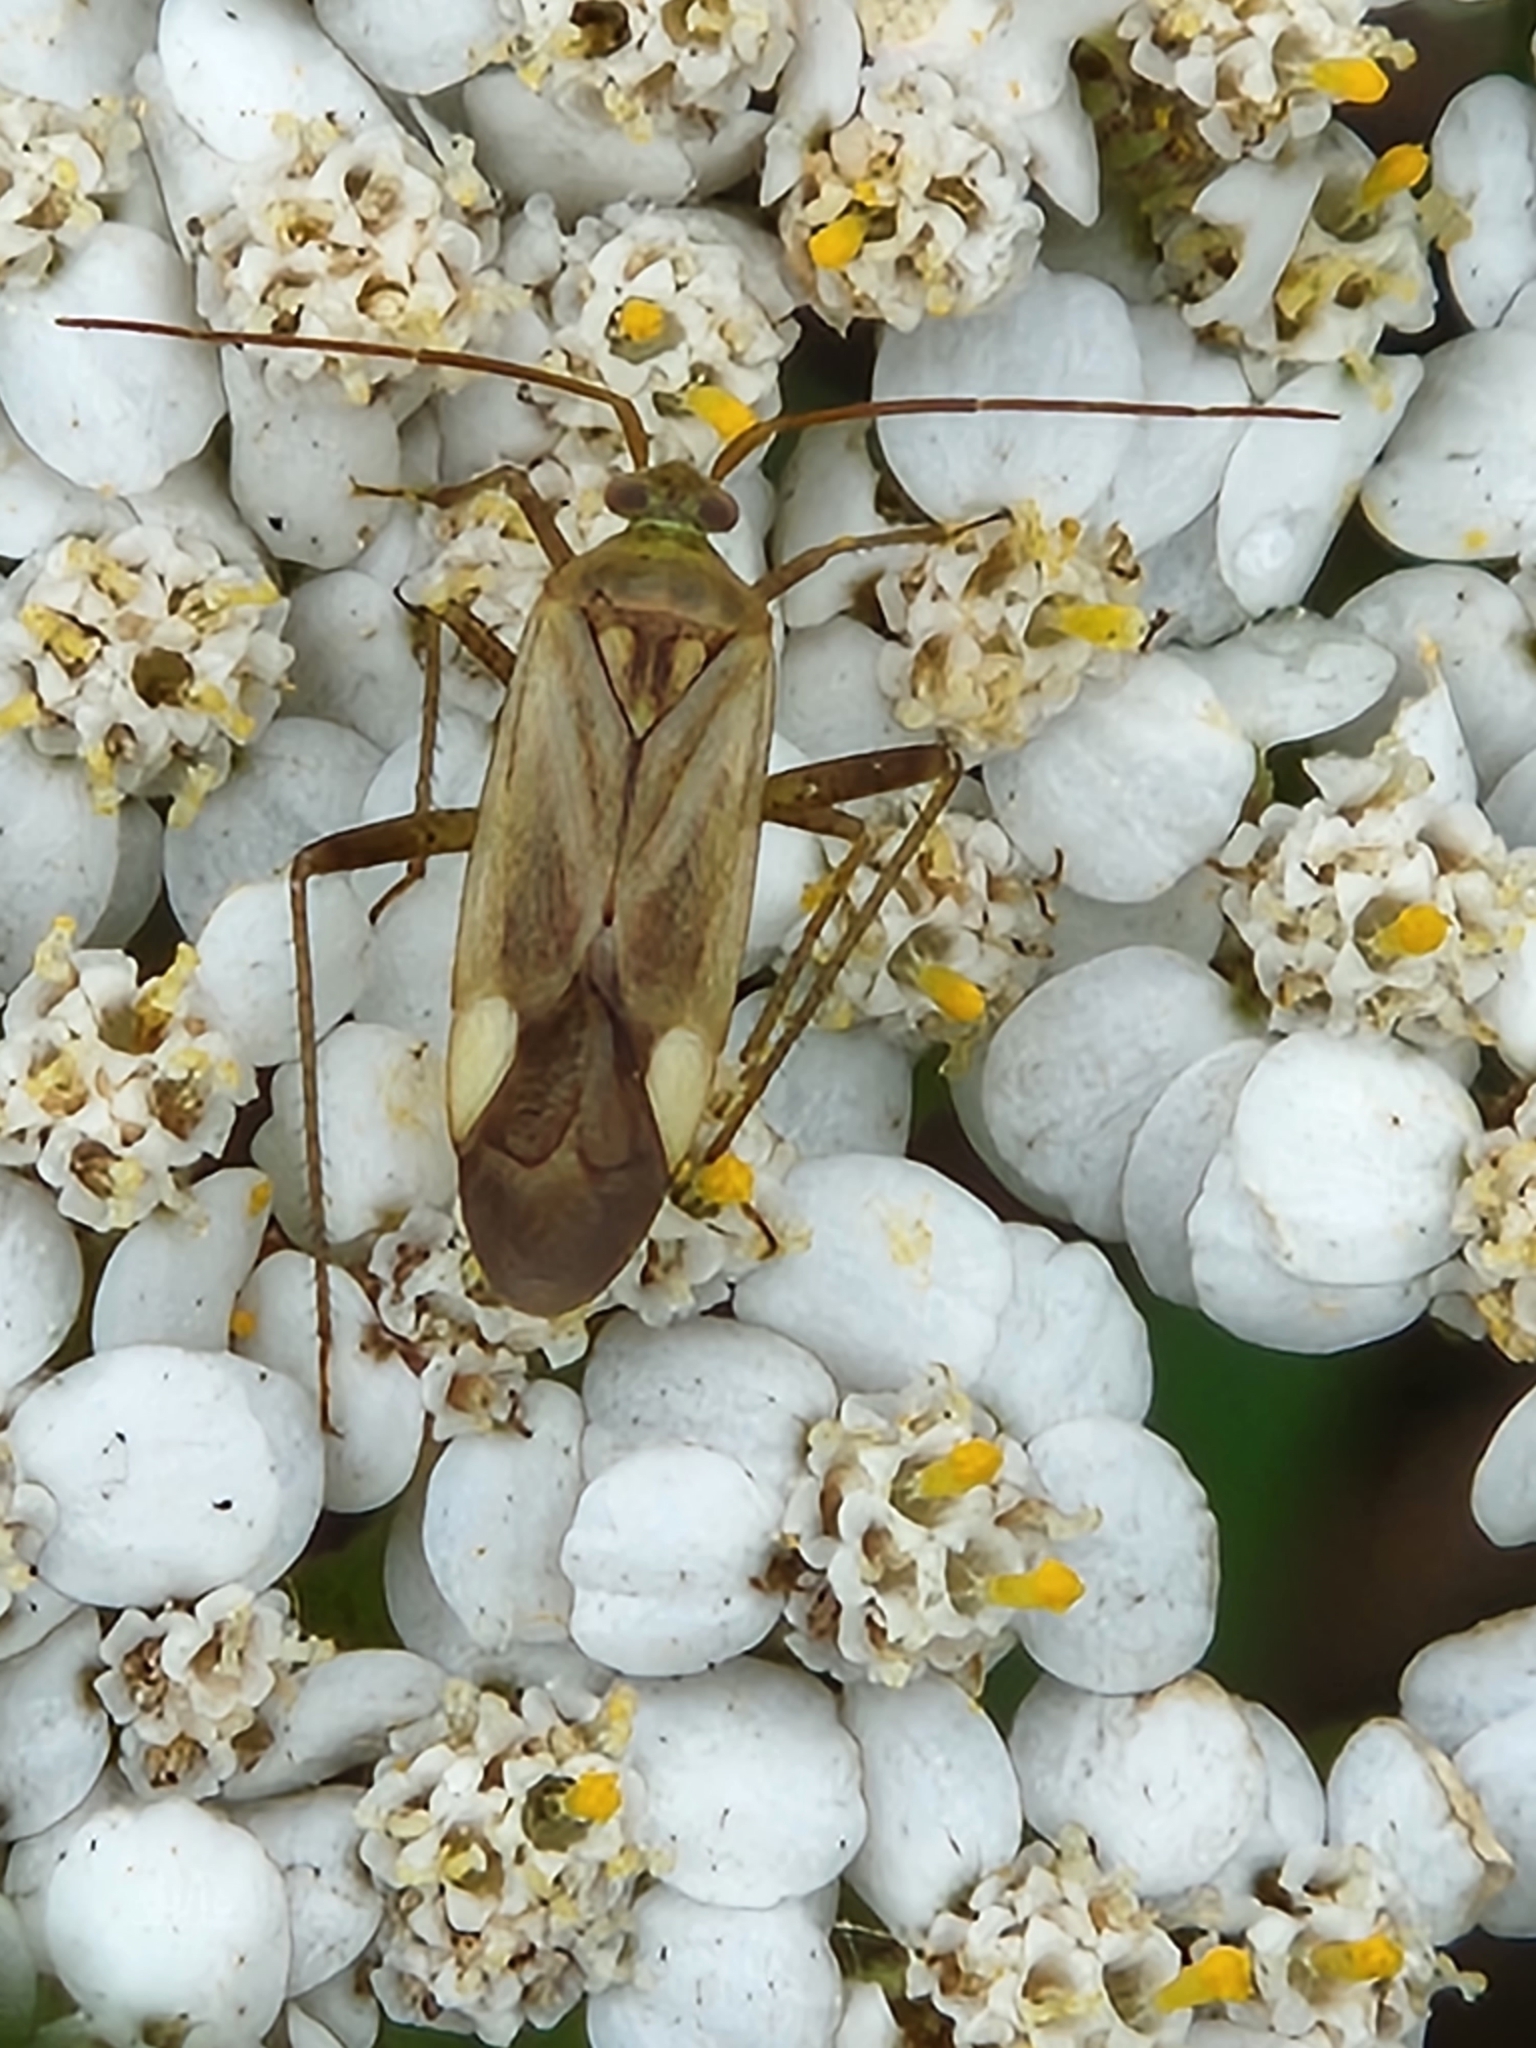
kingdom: Animalia
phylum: Arthropoda
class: Insecta
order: Hemiptera
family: Miridae
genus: Adelphocoris
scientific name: Adelphocoris lineolatus
